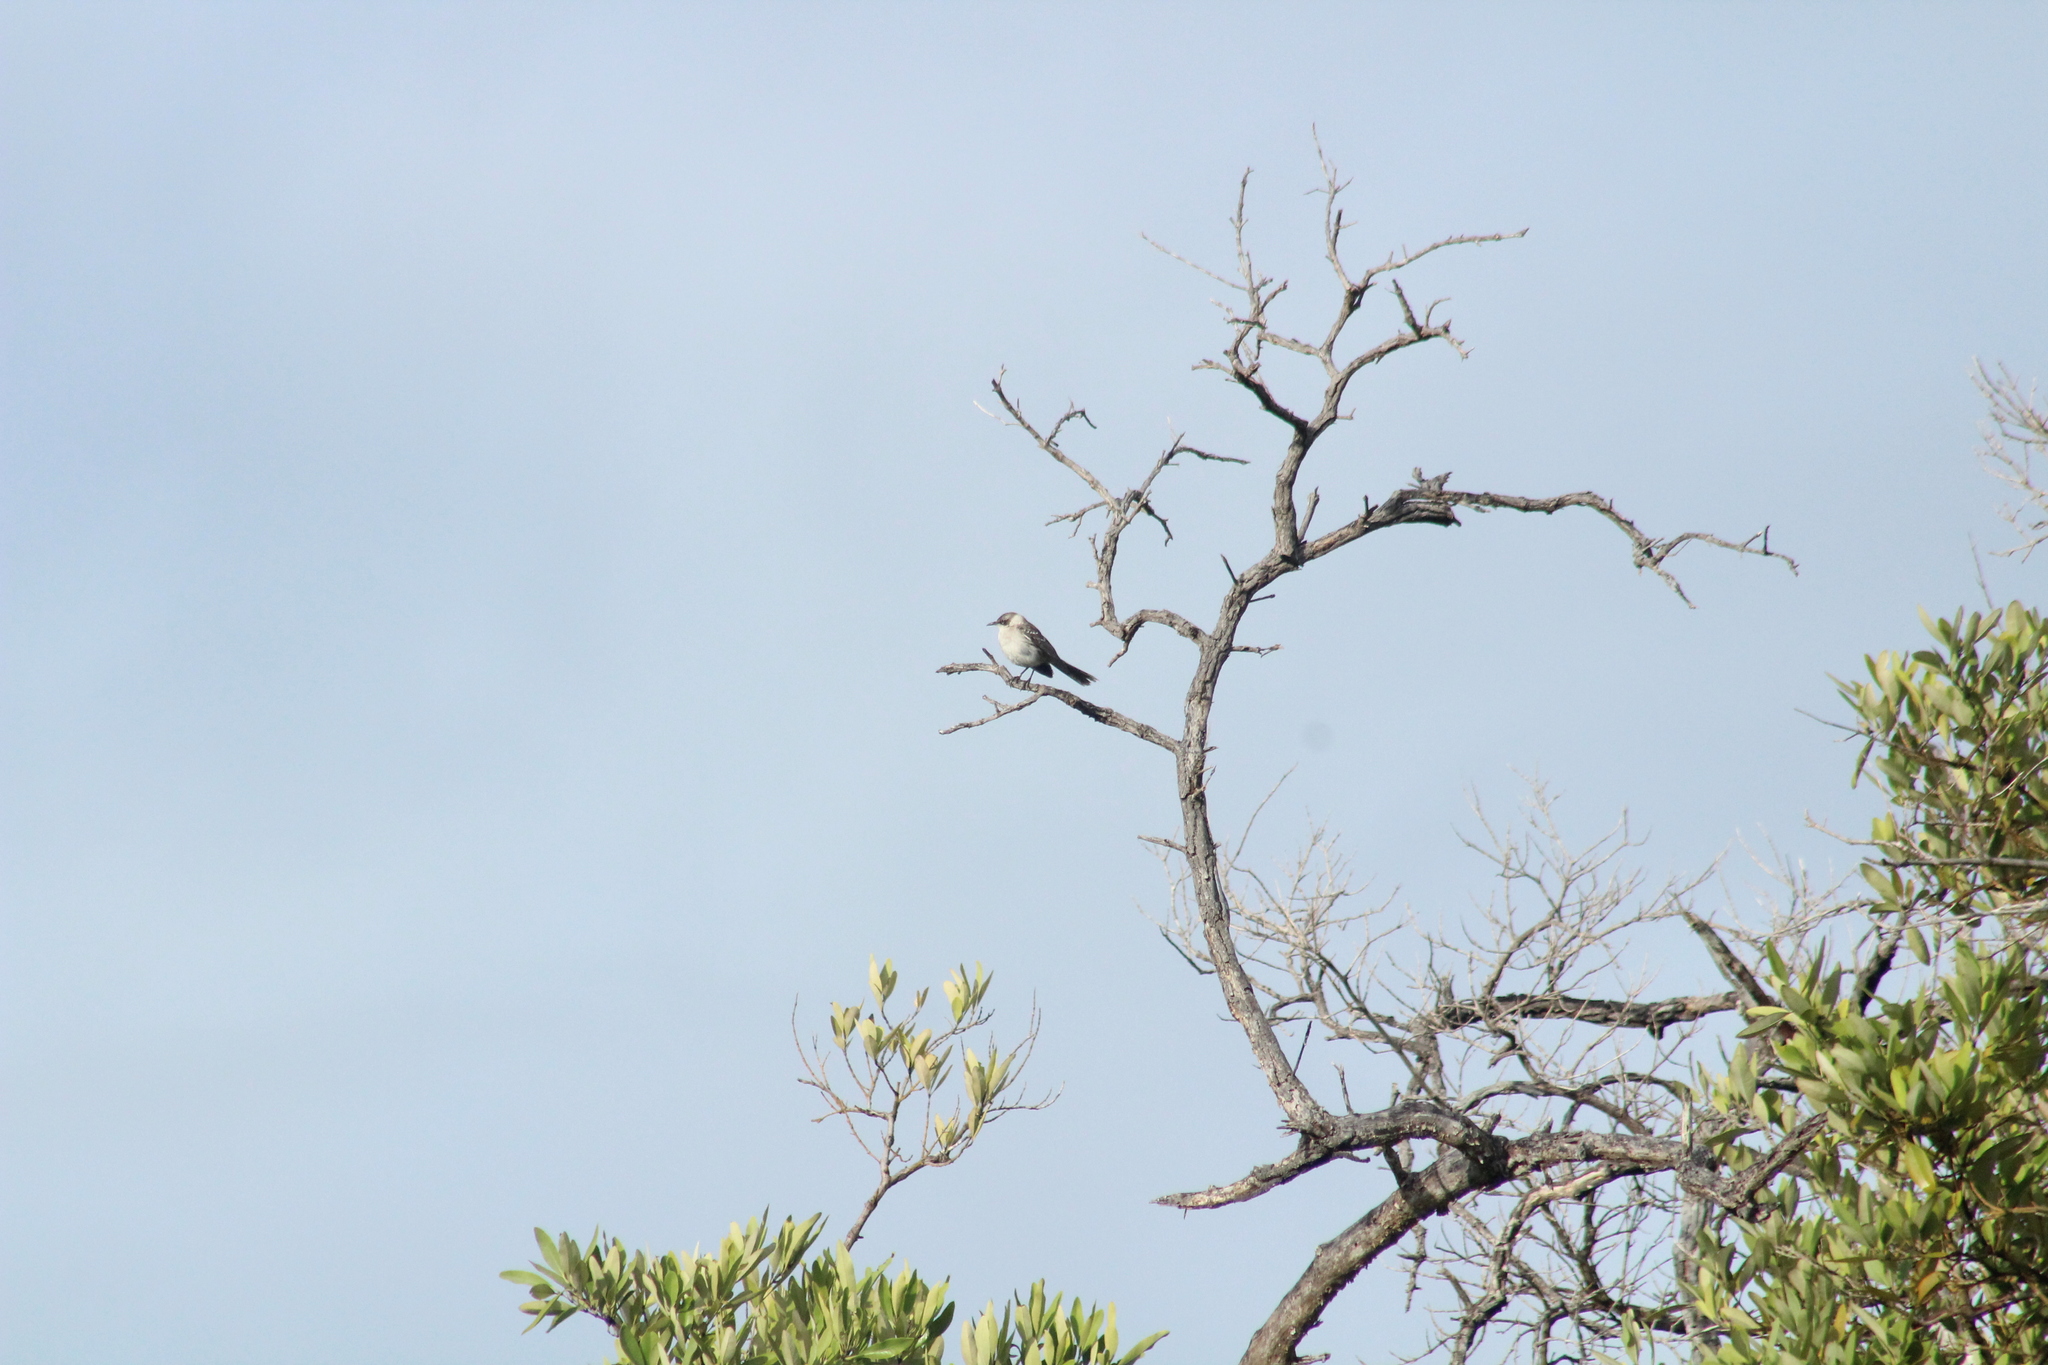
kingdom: Animalia
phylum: Chordata
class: Aves
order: Passeriformes
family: Mimidae
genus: Mimus
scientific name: Mimus parvulus
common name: Galapagos mockingbird
